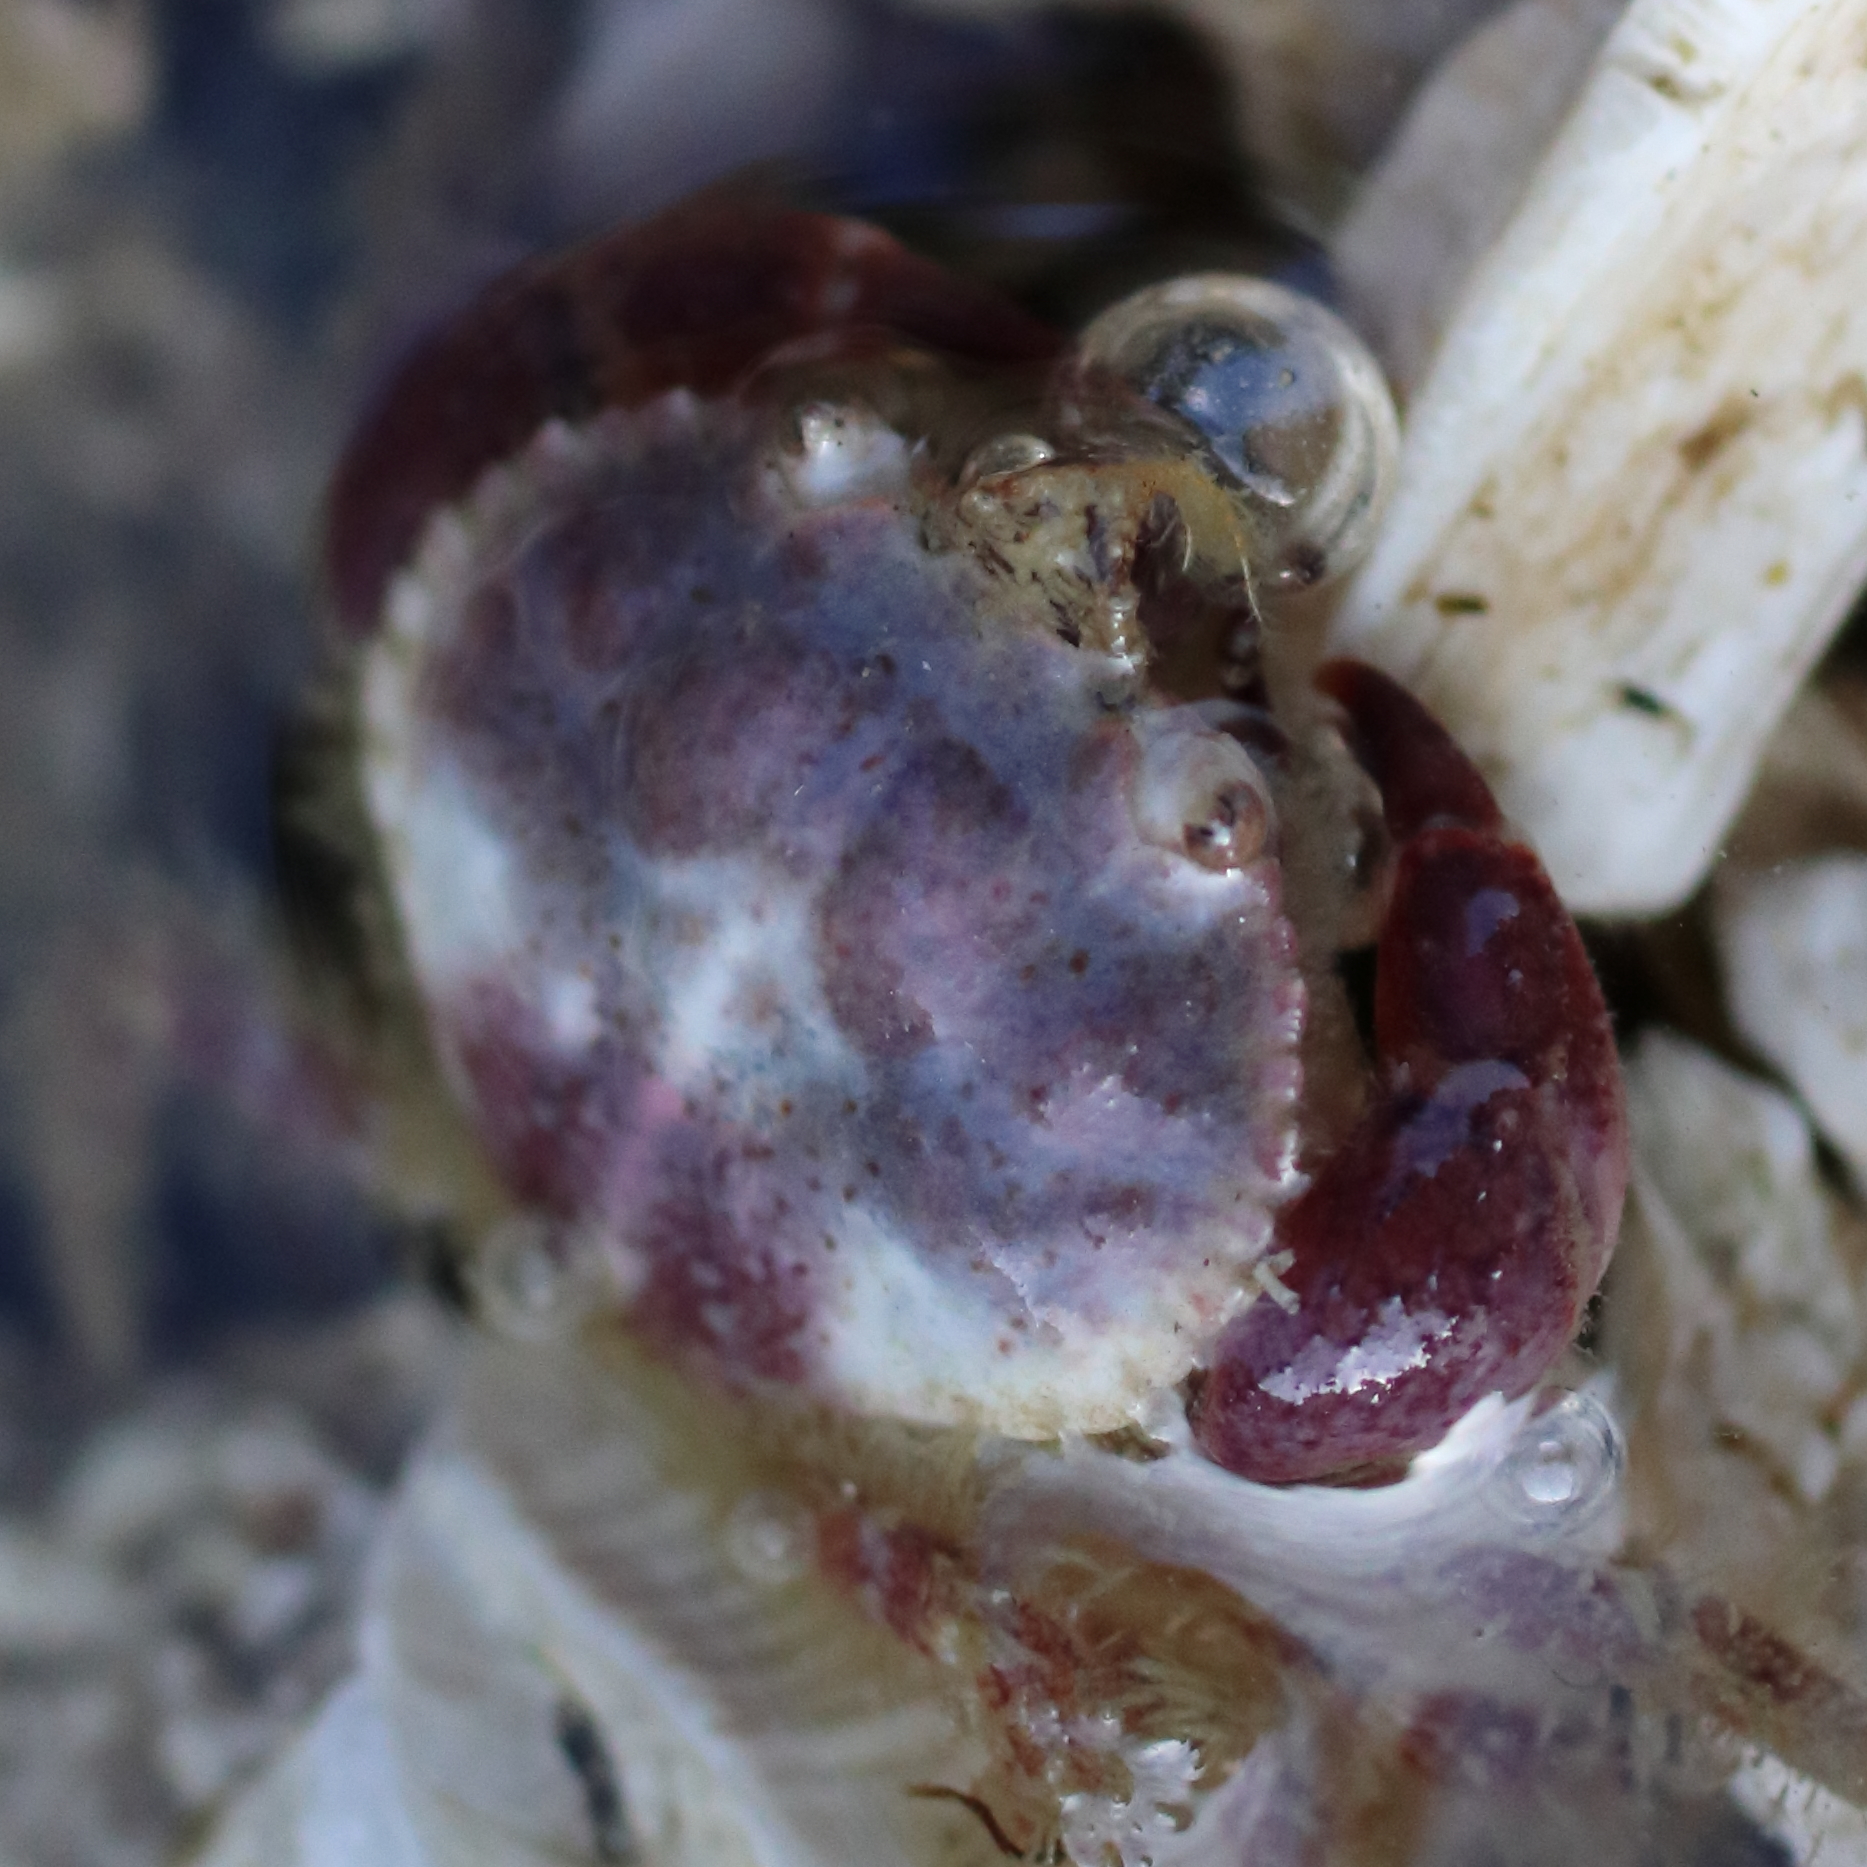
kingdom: Animalia
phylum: Arthropoda
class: Malacostraca
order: Decapoda
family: Cancridae
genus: Glebocarcinus
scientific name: Glebocarcinus oregonensis
